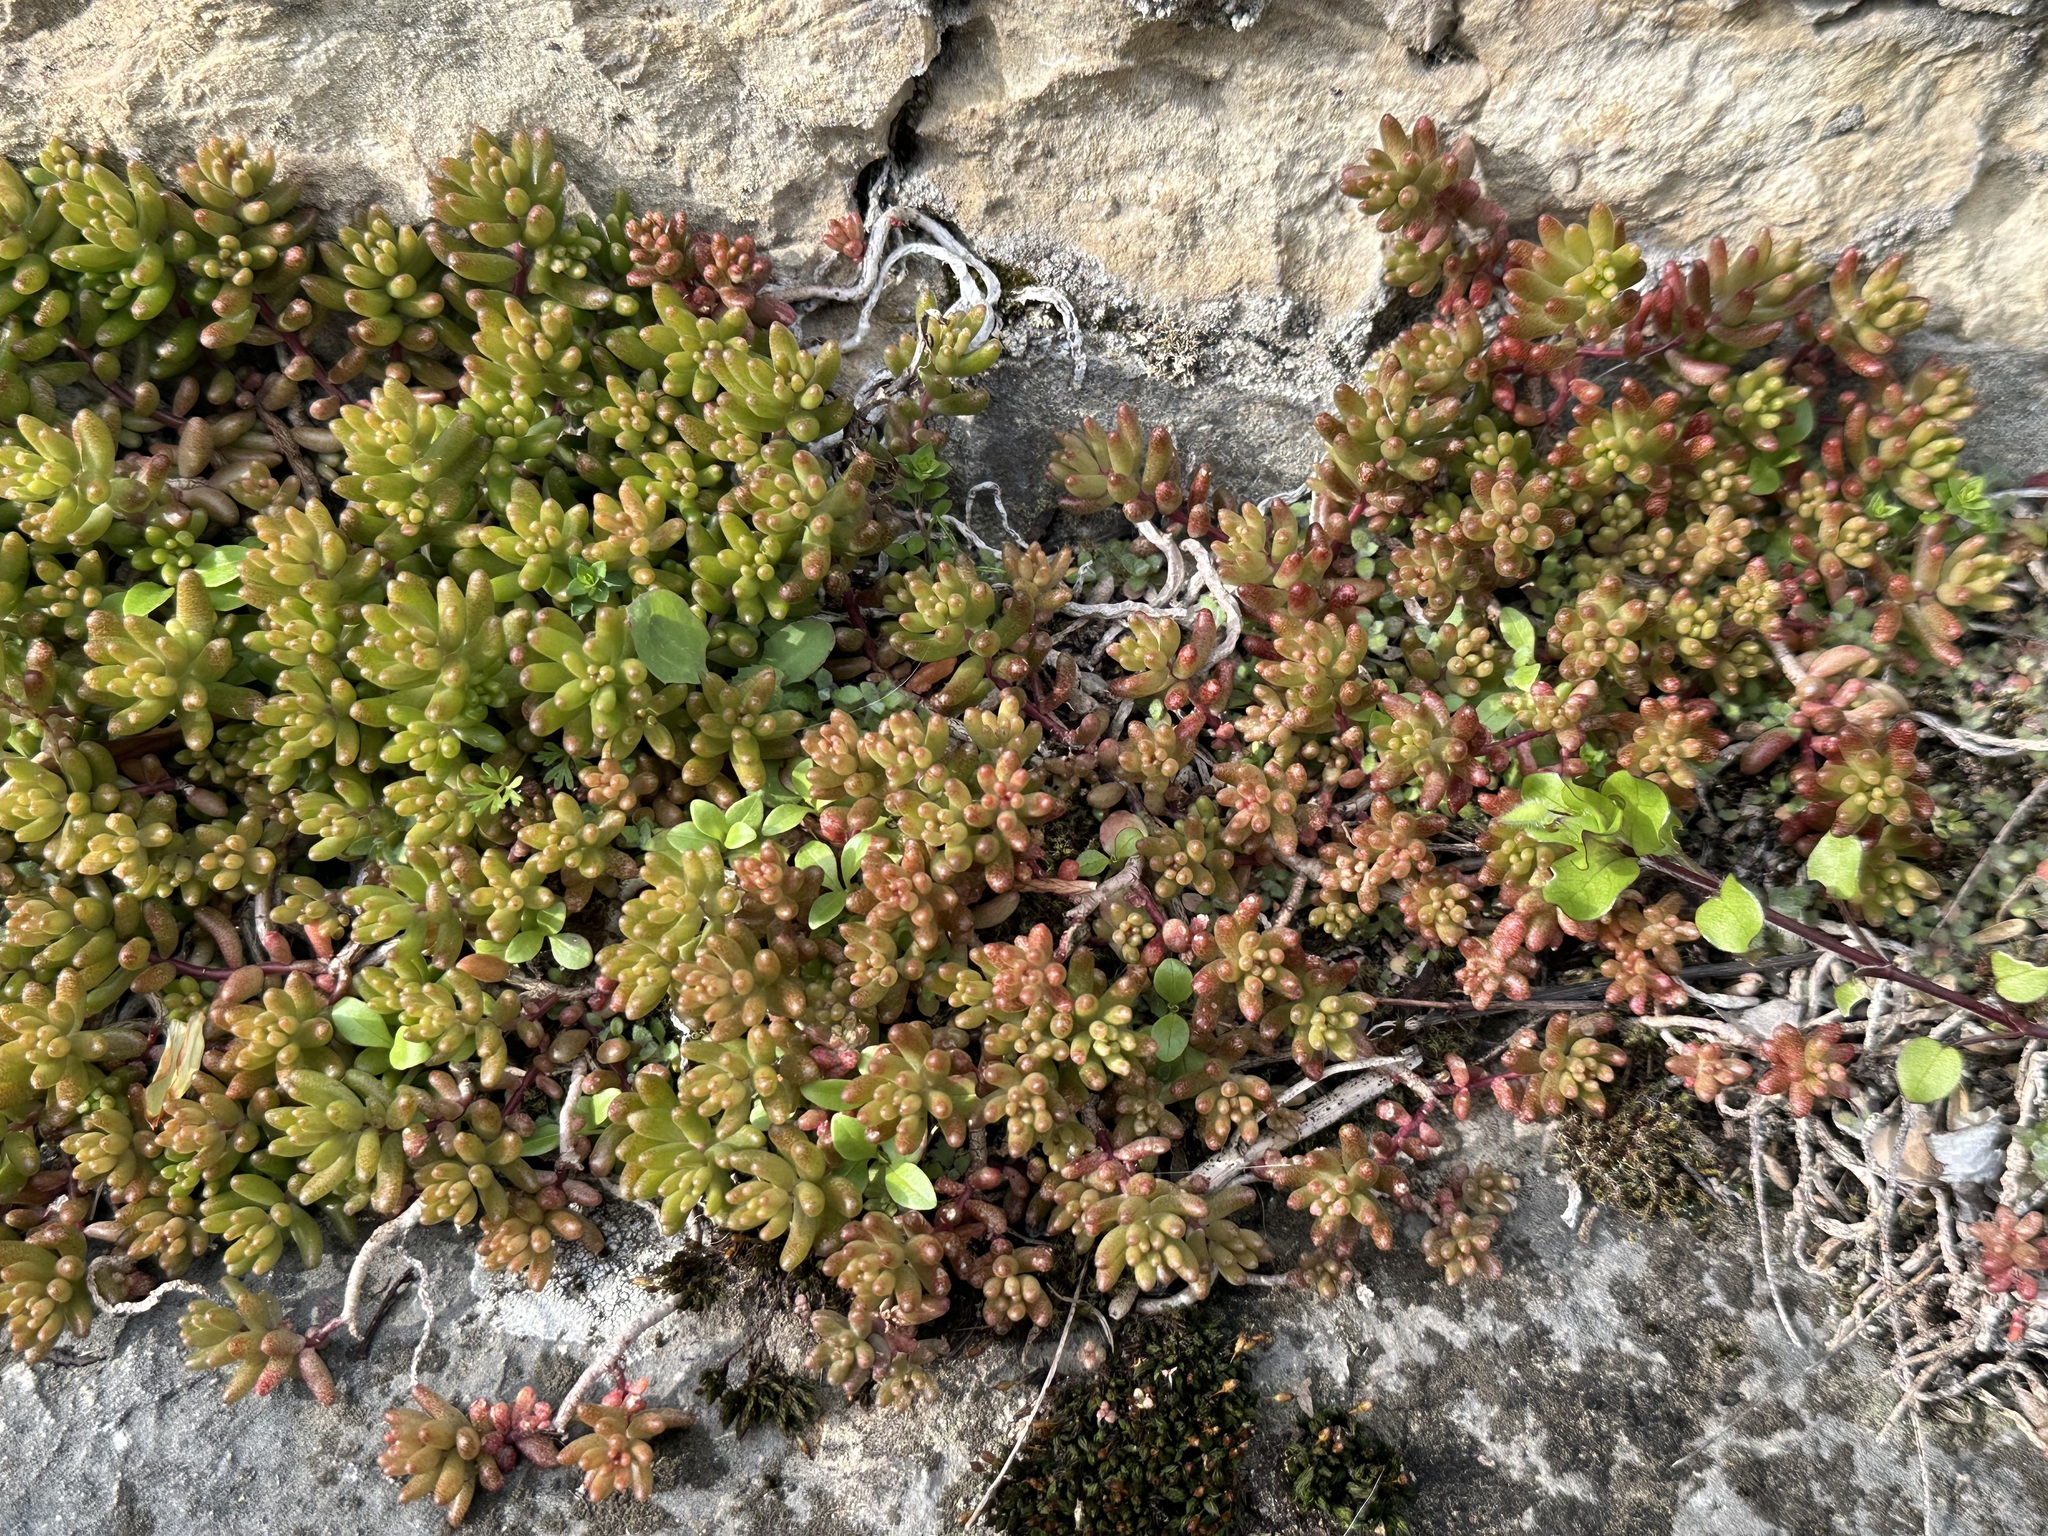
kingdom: Plantae
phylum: Tracheophyta
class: Magnoliopsida
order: Saxifragales
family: Crassulaceae
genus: Sedum
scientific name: Sedum album
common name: White stonecrop
